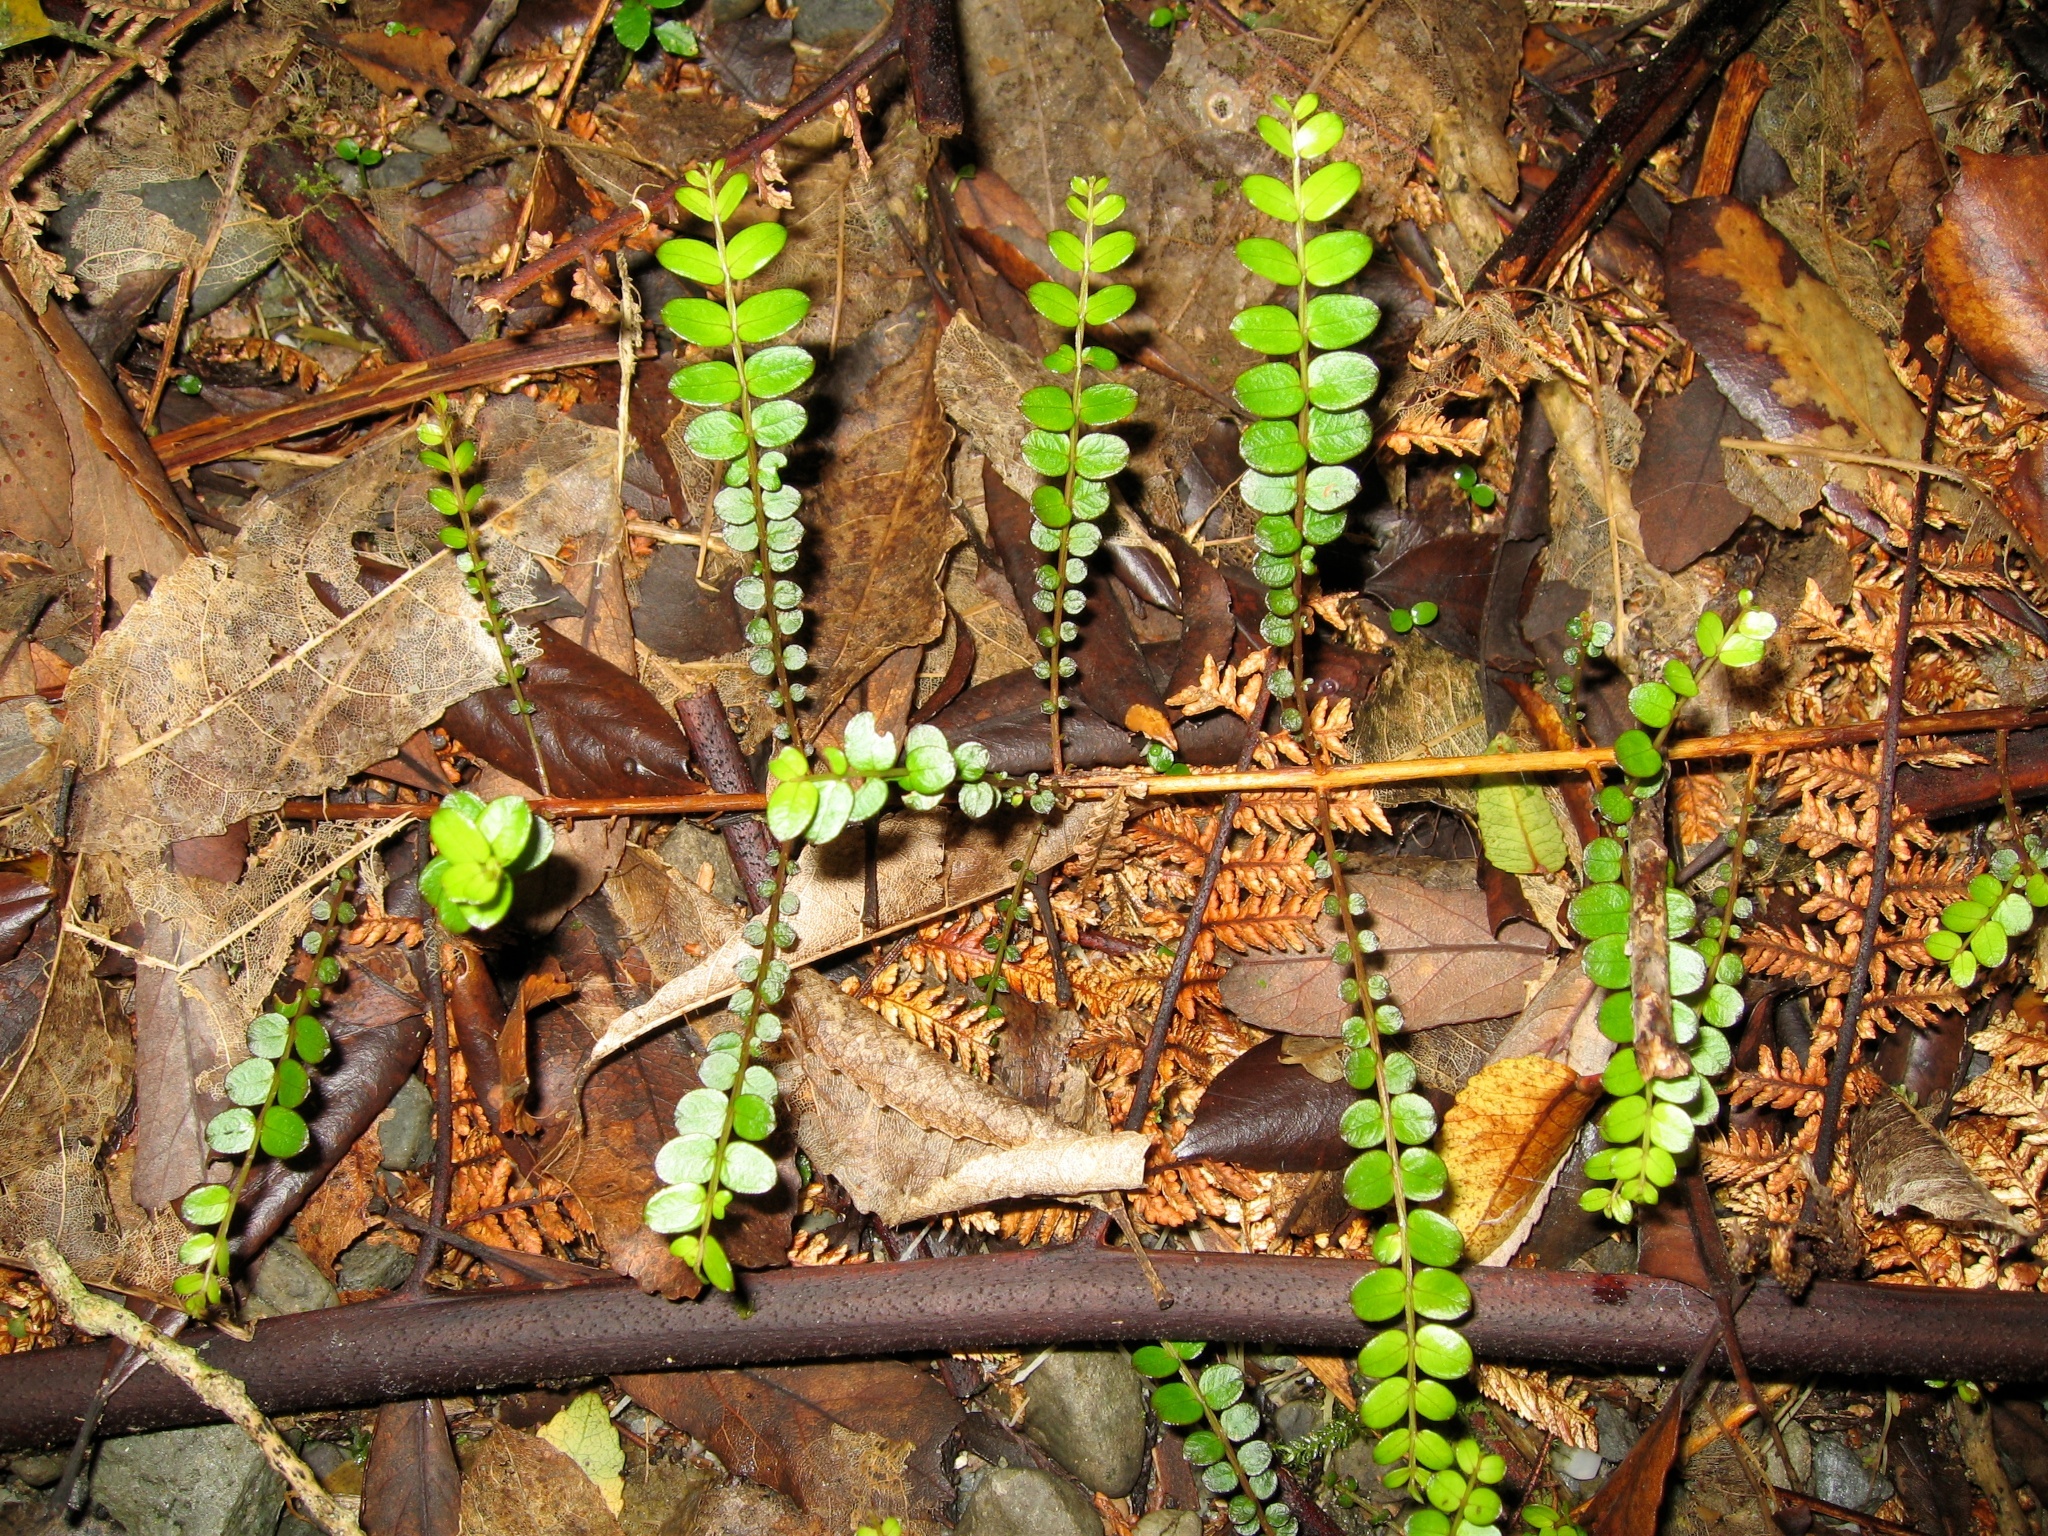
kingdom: Plantae
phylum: Tracheophyta
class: Magnoliopsida
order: Myrtales
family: Myrtaceae
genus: Metrosideros
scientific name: Metrosideros diffusa
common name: Small ratavine
